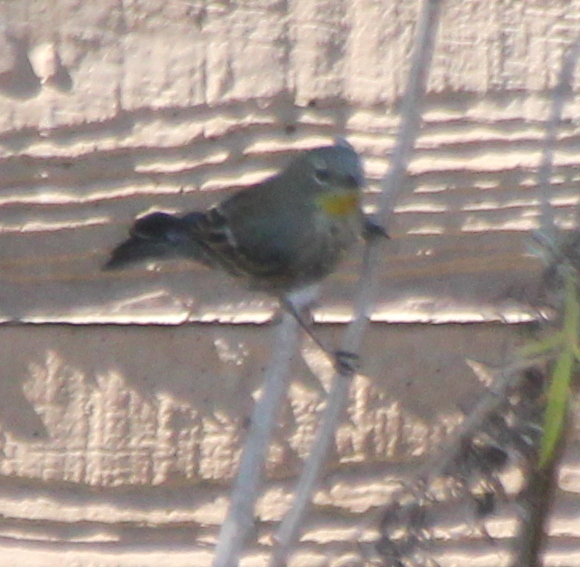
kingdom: Animalia
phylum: Chordata
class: Aves
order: Passeriformes
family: Parulidae
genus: Setophaga
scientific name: Setophaga auduboni
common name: Audubon's warbler
